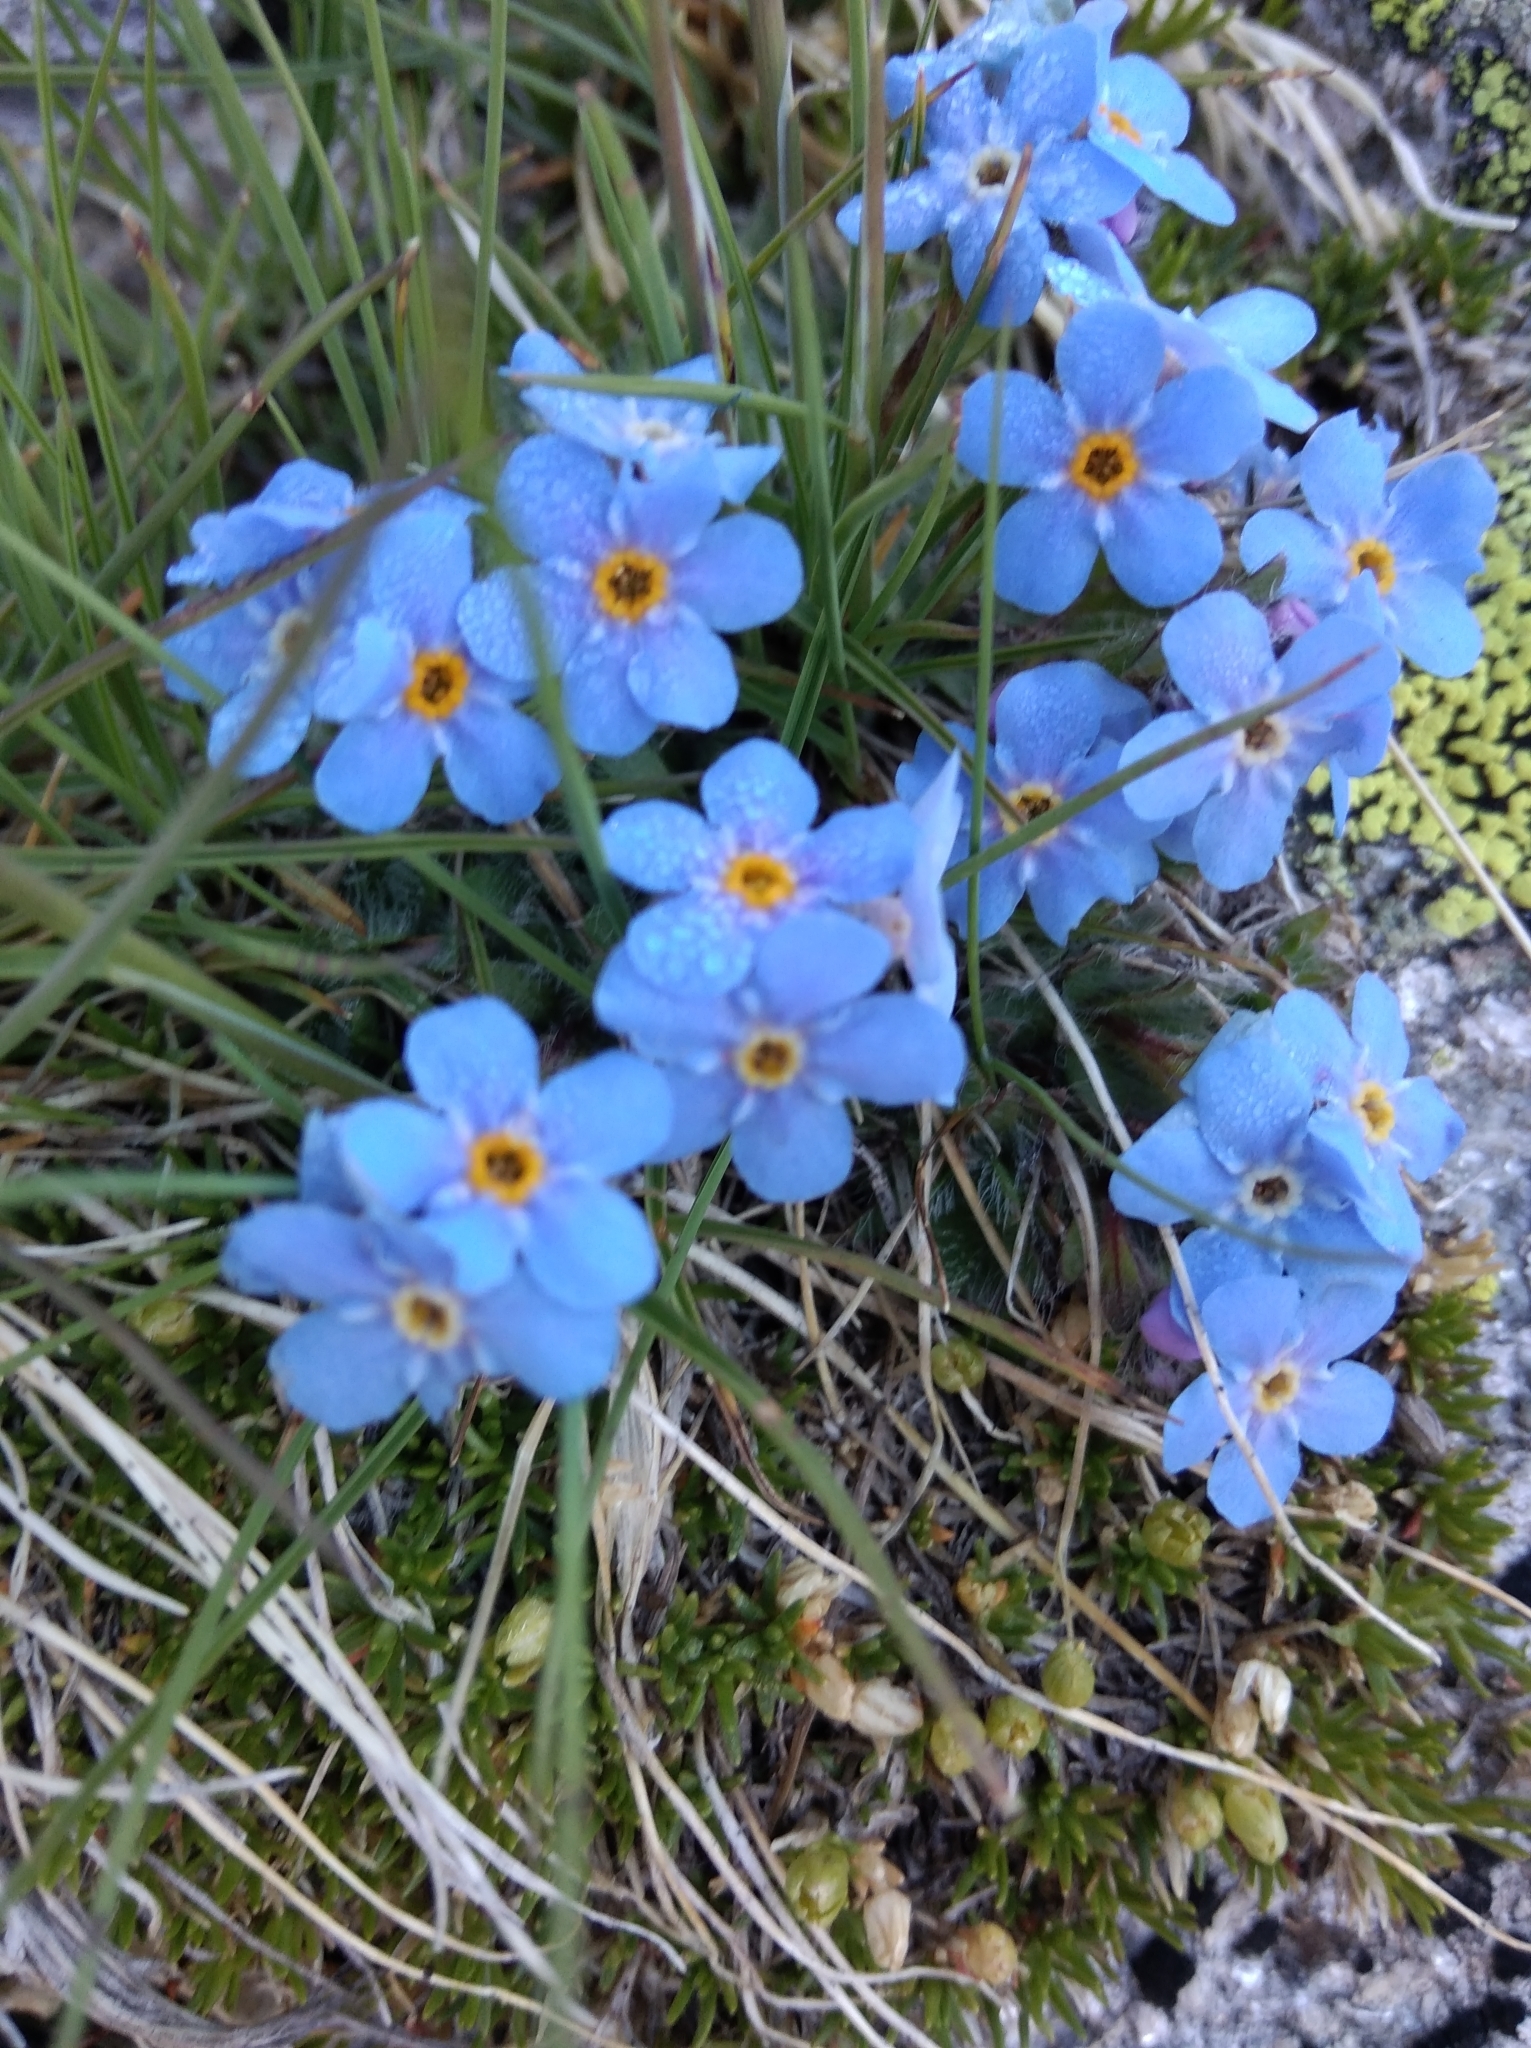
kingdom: Plantae
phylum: Tracheophyta
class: Magnoliopsida
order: Boraginales
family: Boraginaceae
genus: Eritrichium
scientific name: Eritrichium nanum
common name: King-of-the-alps
